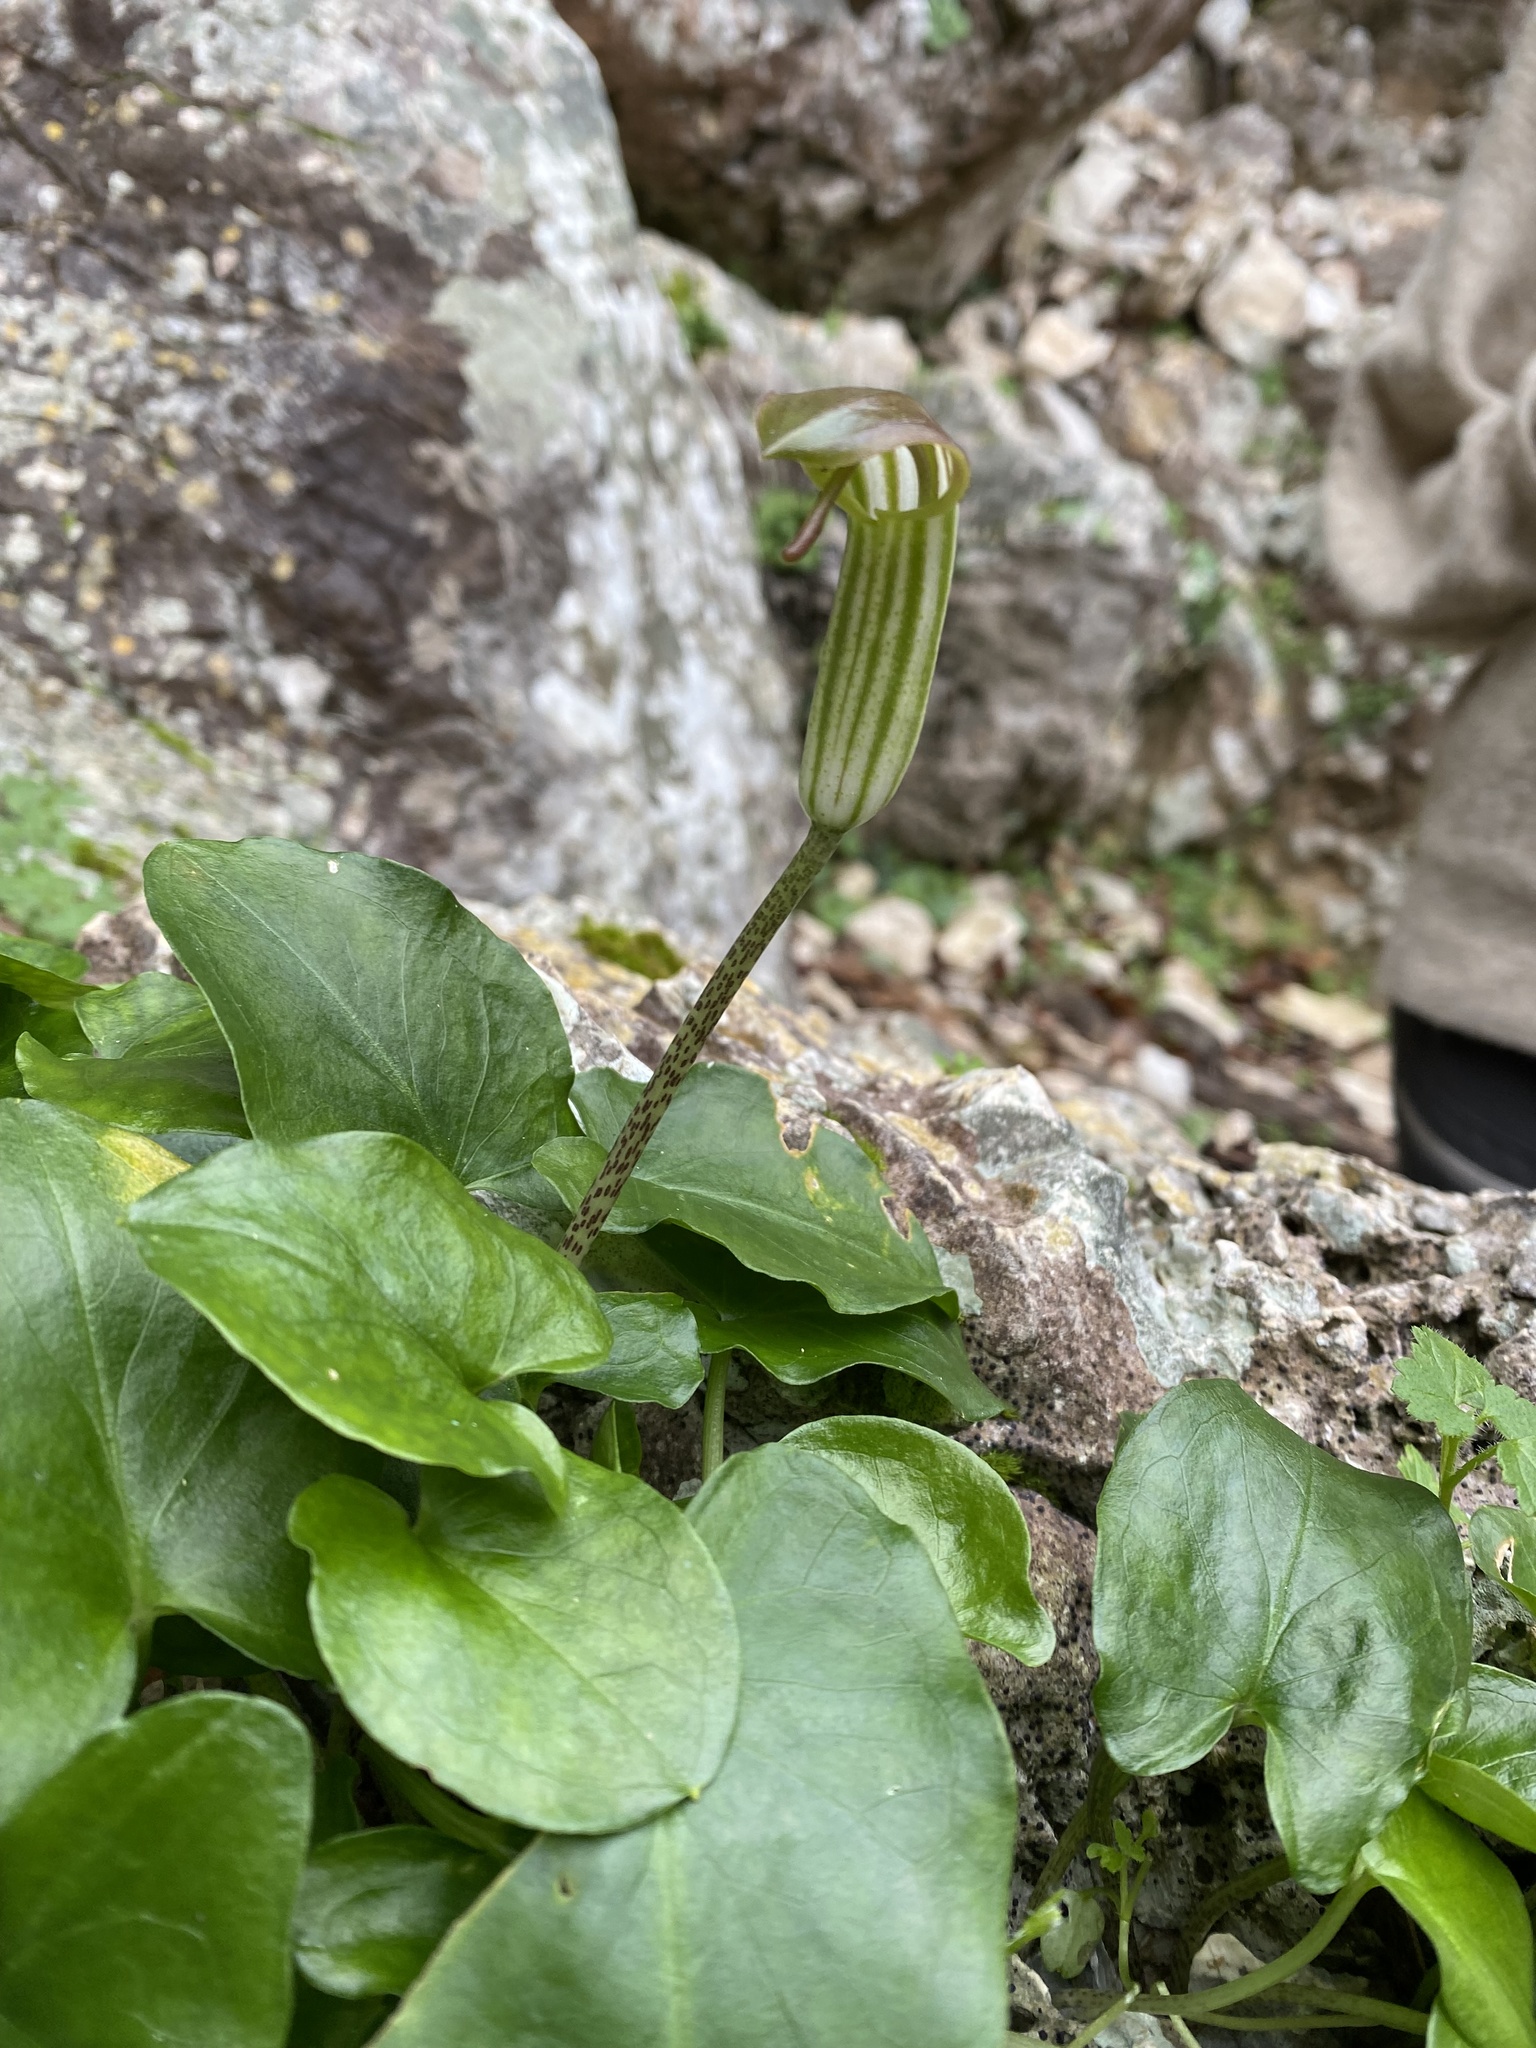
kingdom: Plantae
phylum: Tracheophyta
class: Liliopsida
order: Alismatales
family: Araceae
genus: Arisarum
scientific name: Arisarum vulgare
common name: Common arisarum
